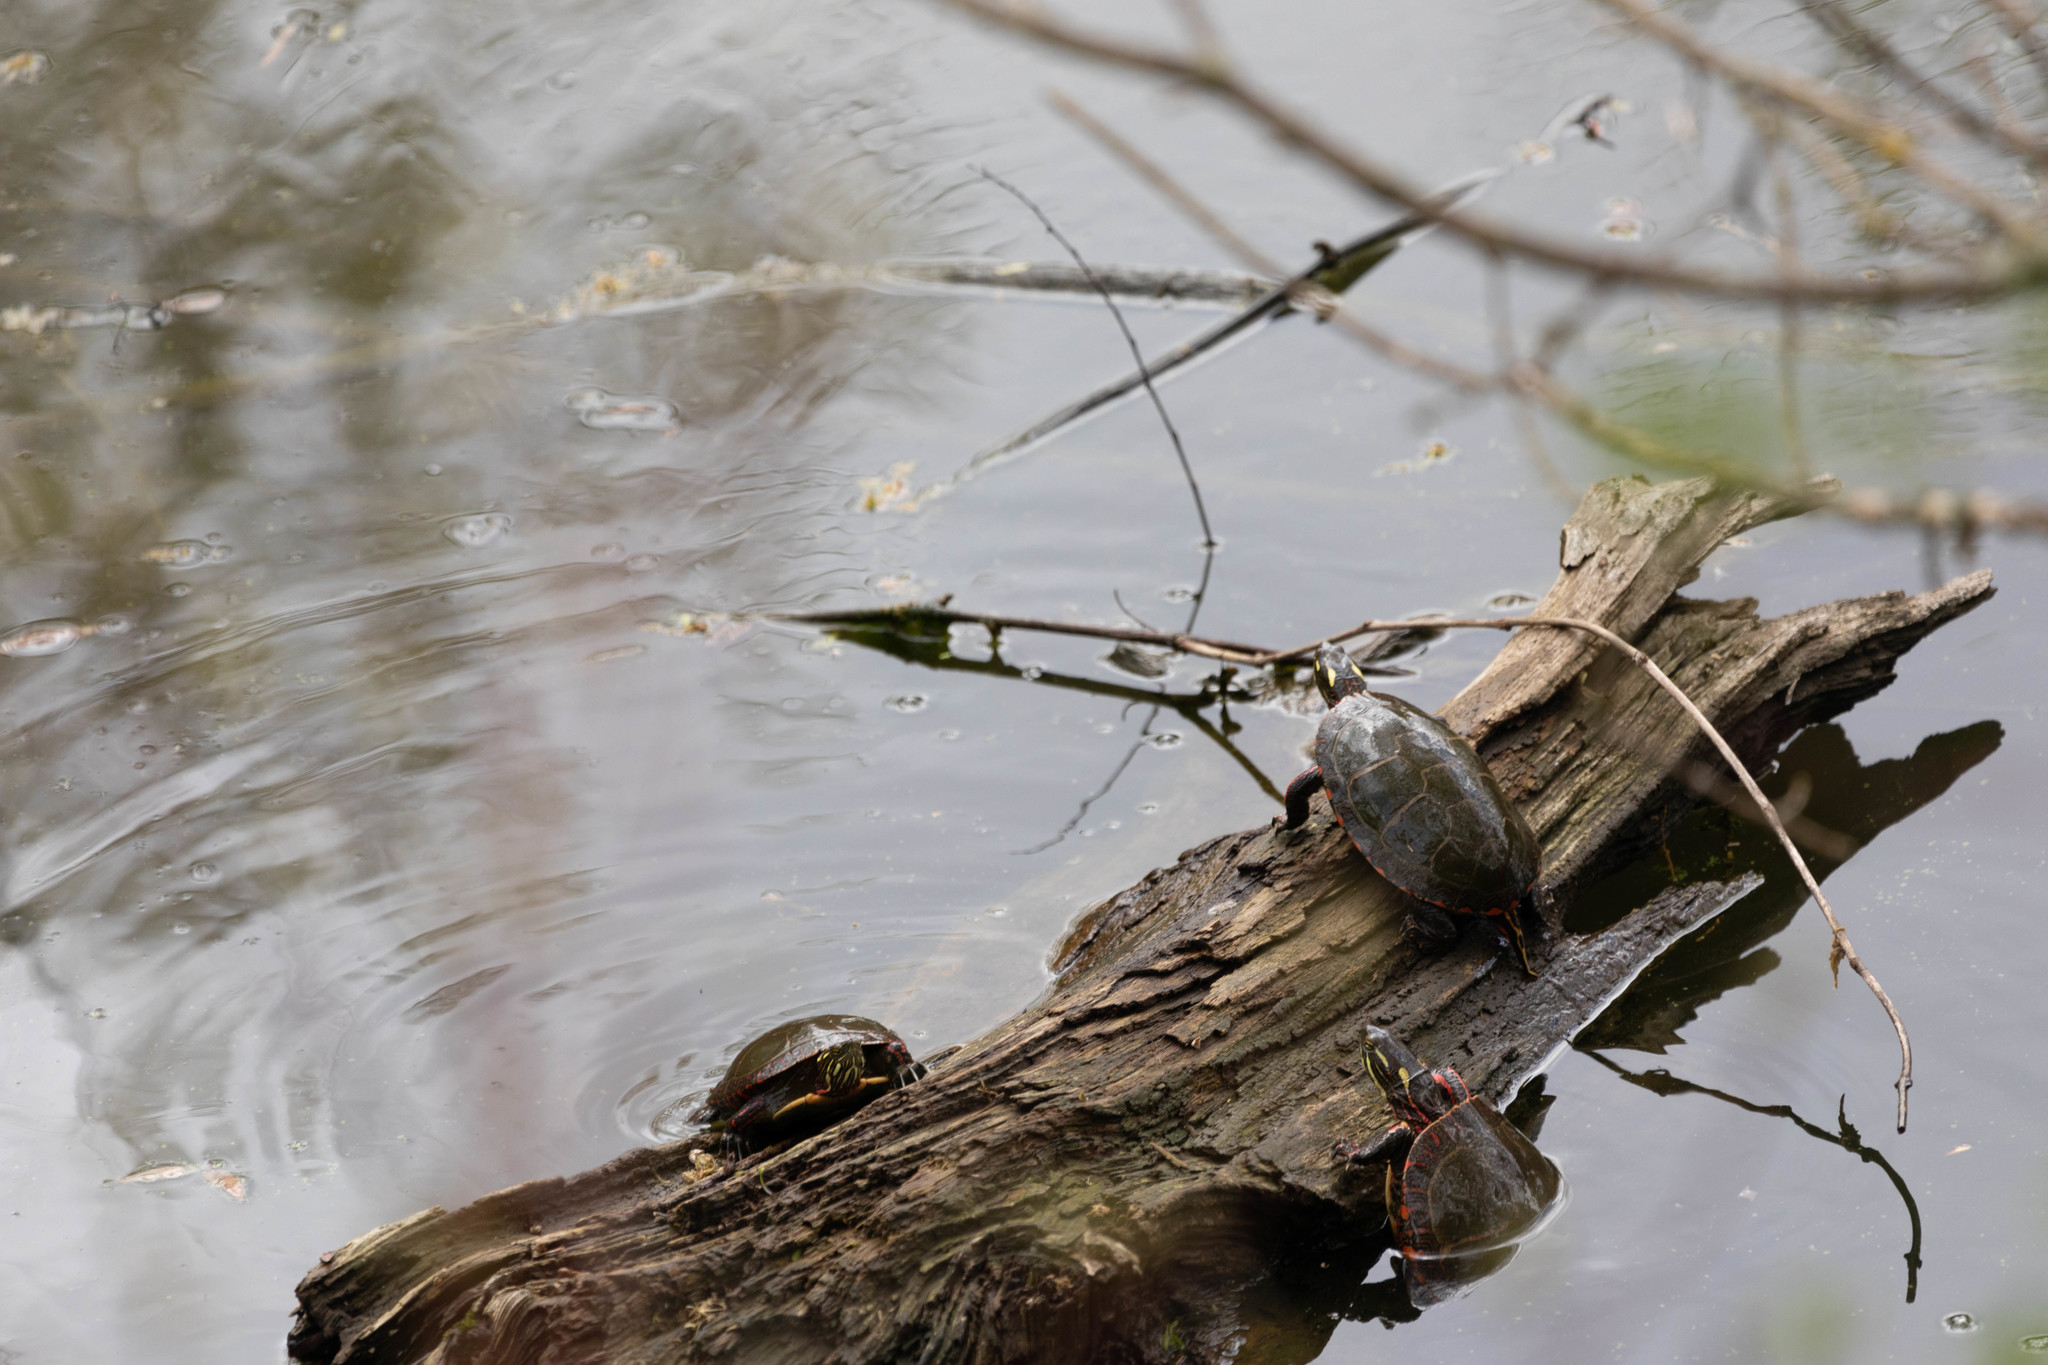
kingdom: Animalia
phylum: Chordata
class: Testudines
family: Emydidae
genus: Chrysemys
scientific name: Chrysemys picta
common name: Painted turtle
